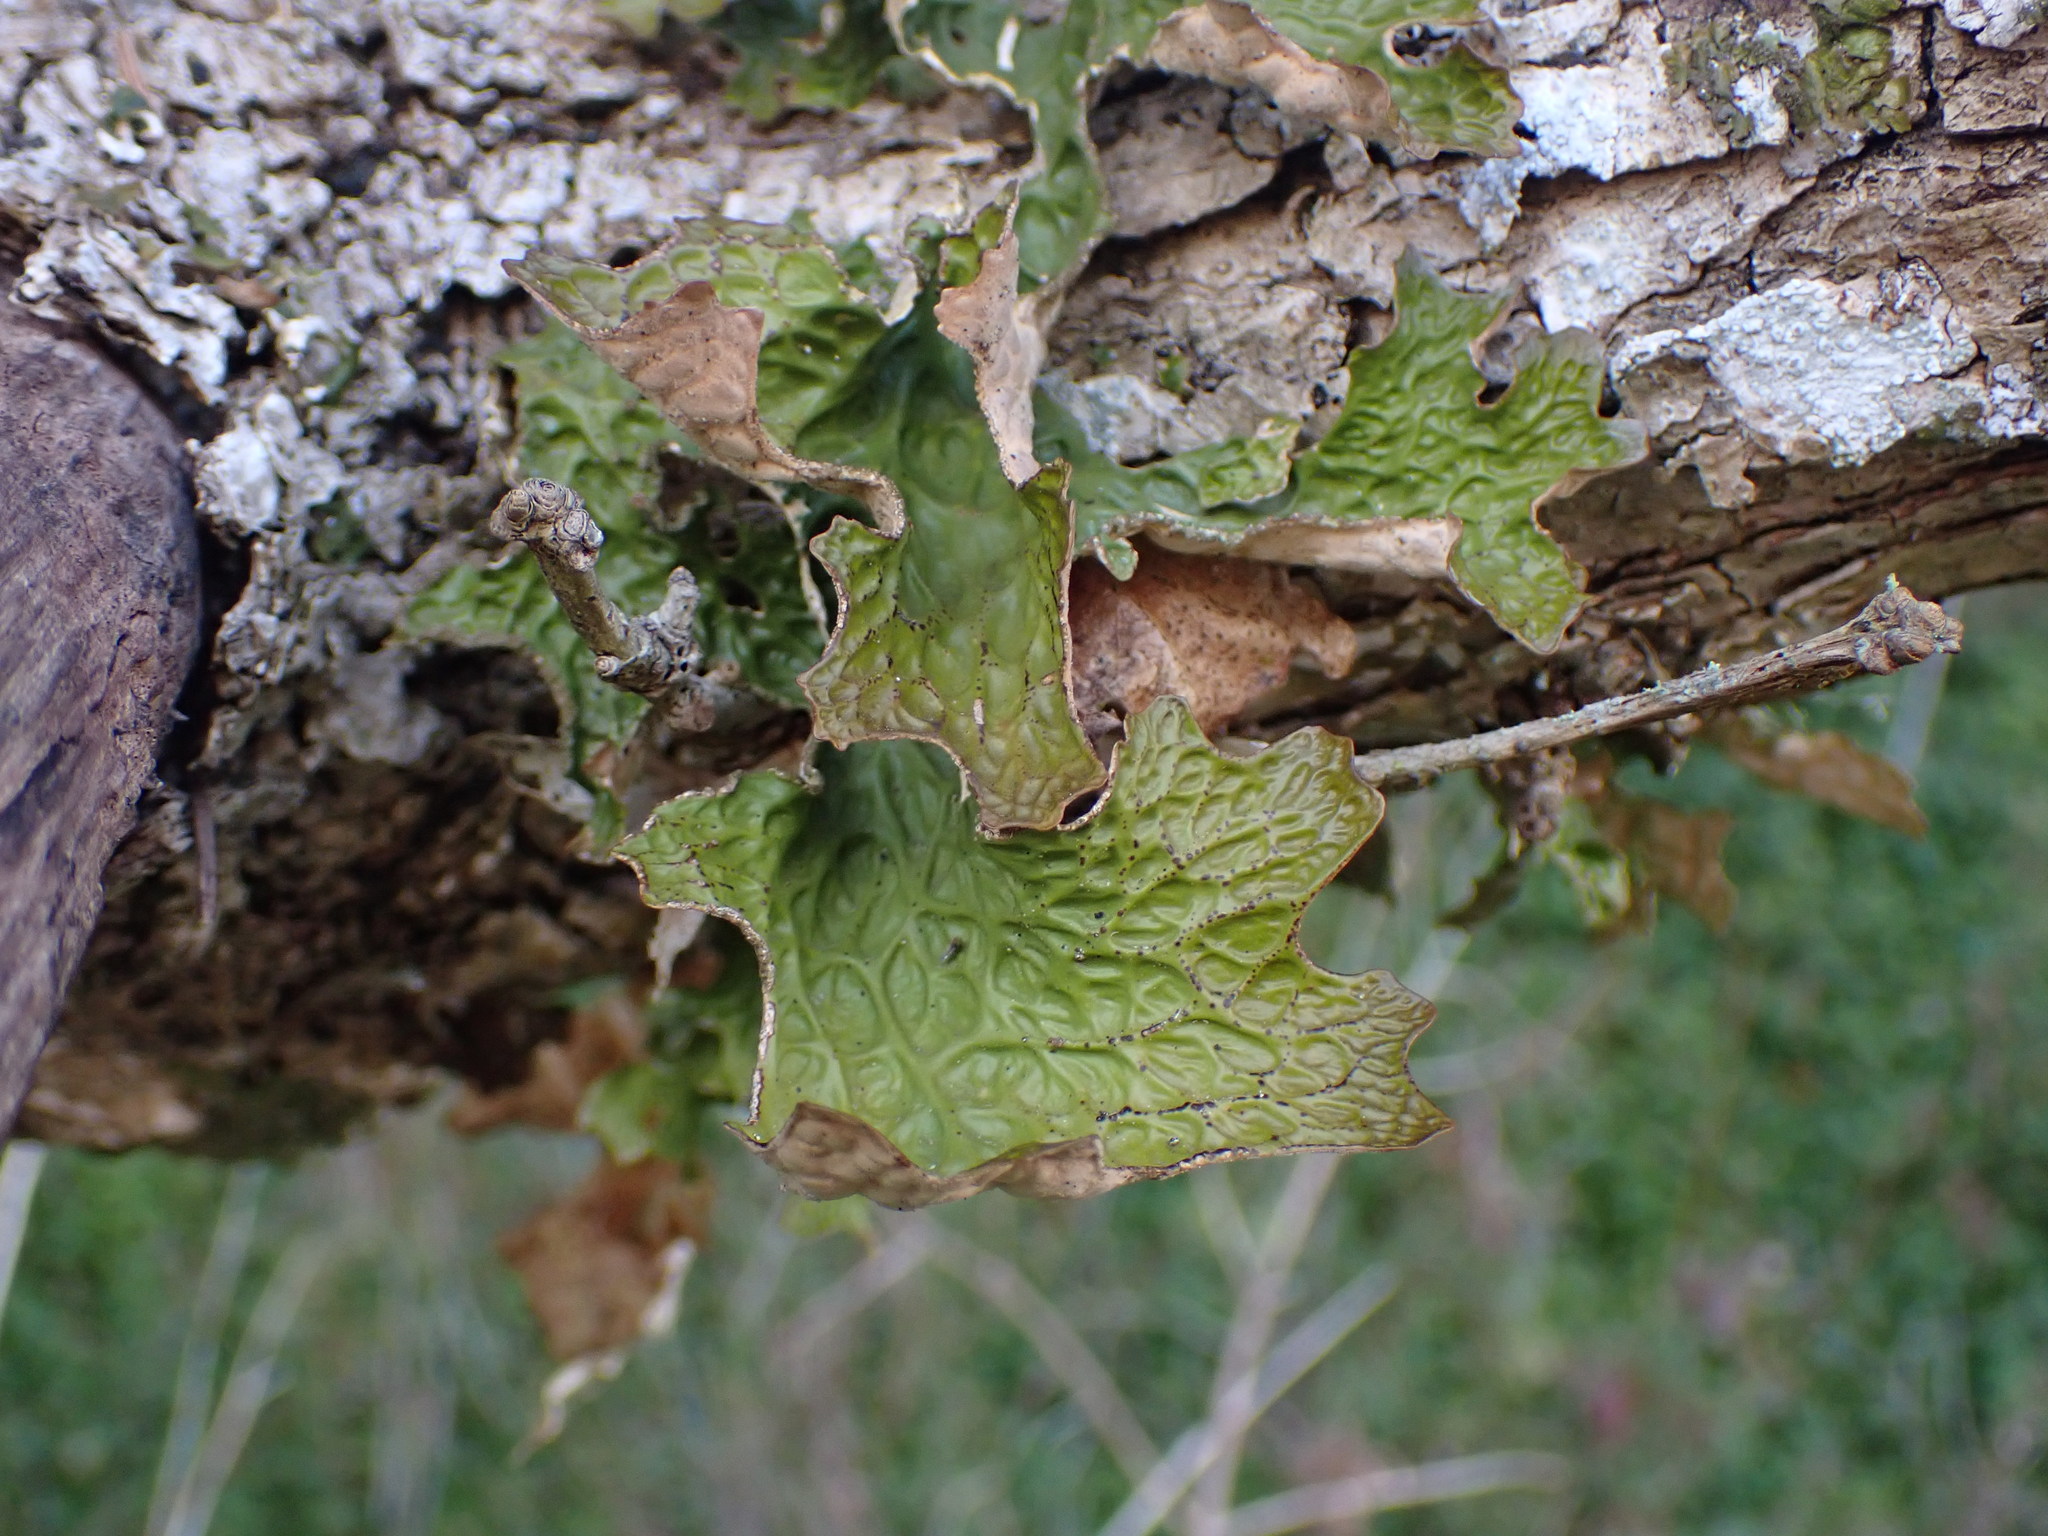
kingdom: Fungi
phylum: Ascomycota
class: Lecanoromycetes
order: Peltigerales
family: Lobariaceae
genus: Lobaria
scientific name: Lobaria pulmonaria
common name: Lungwort
